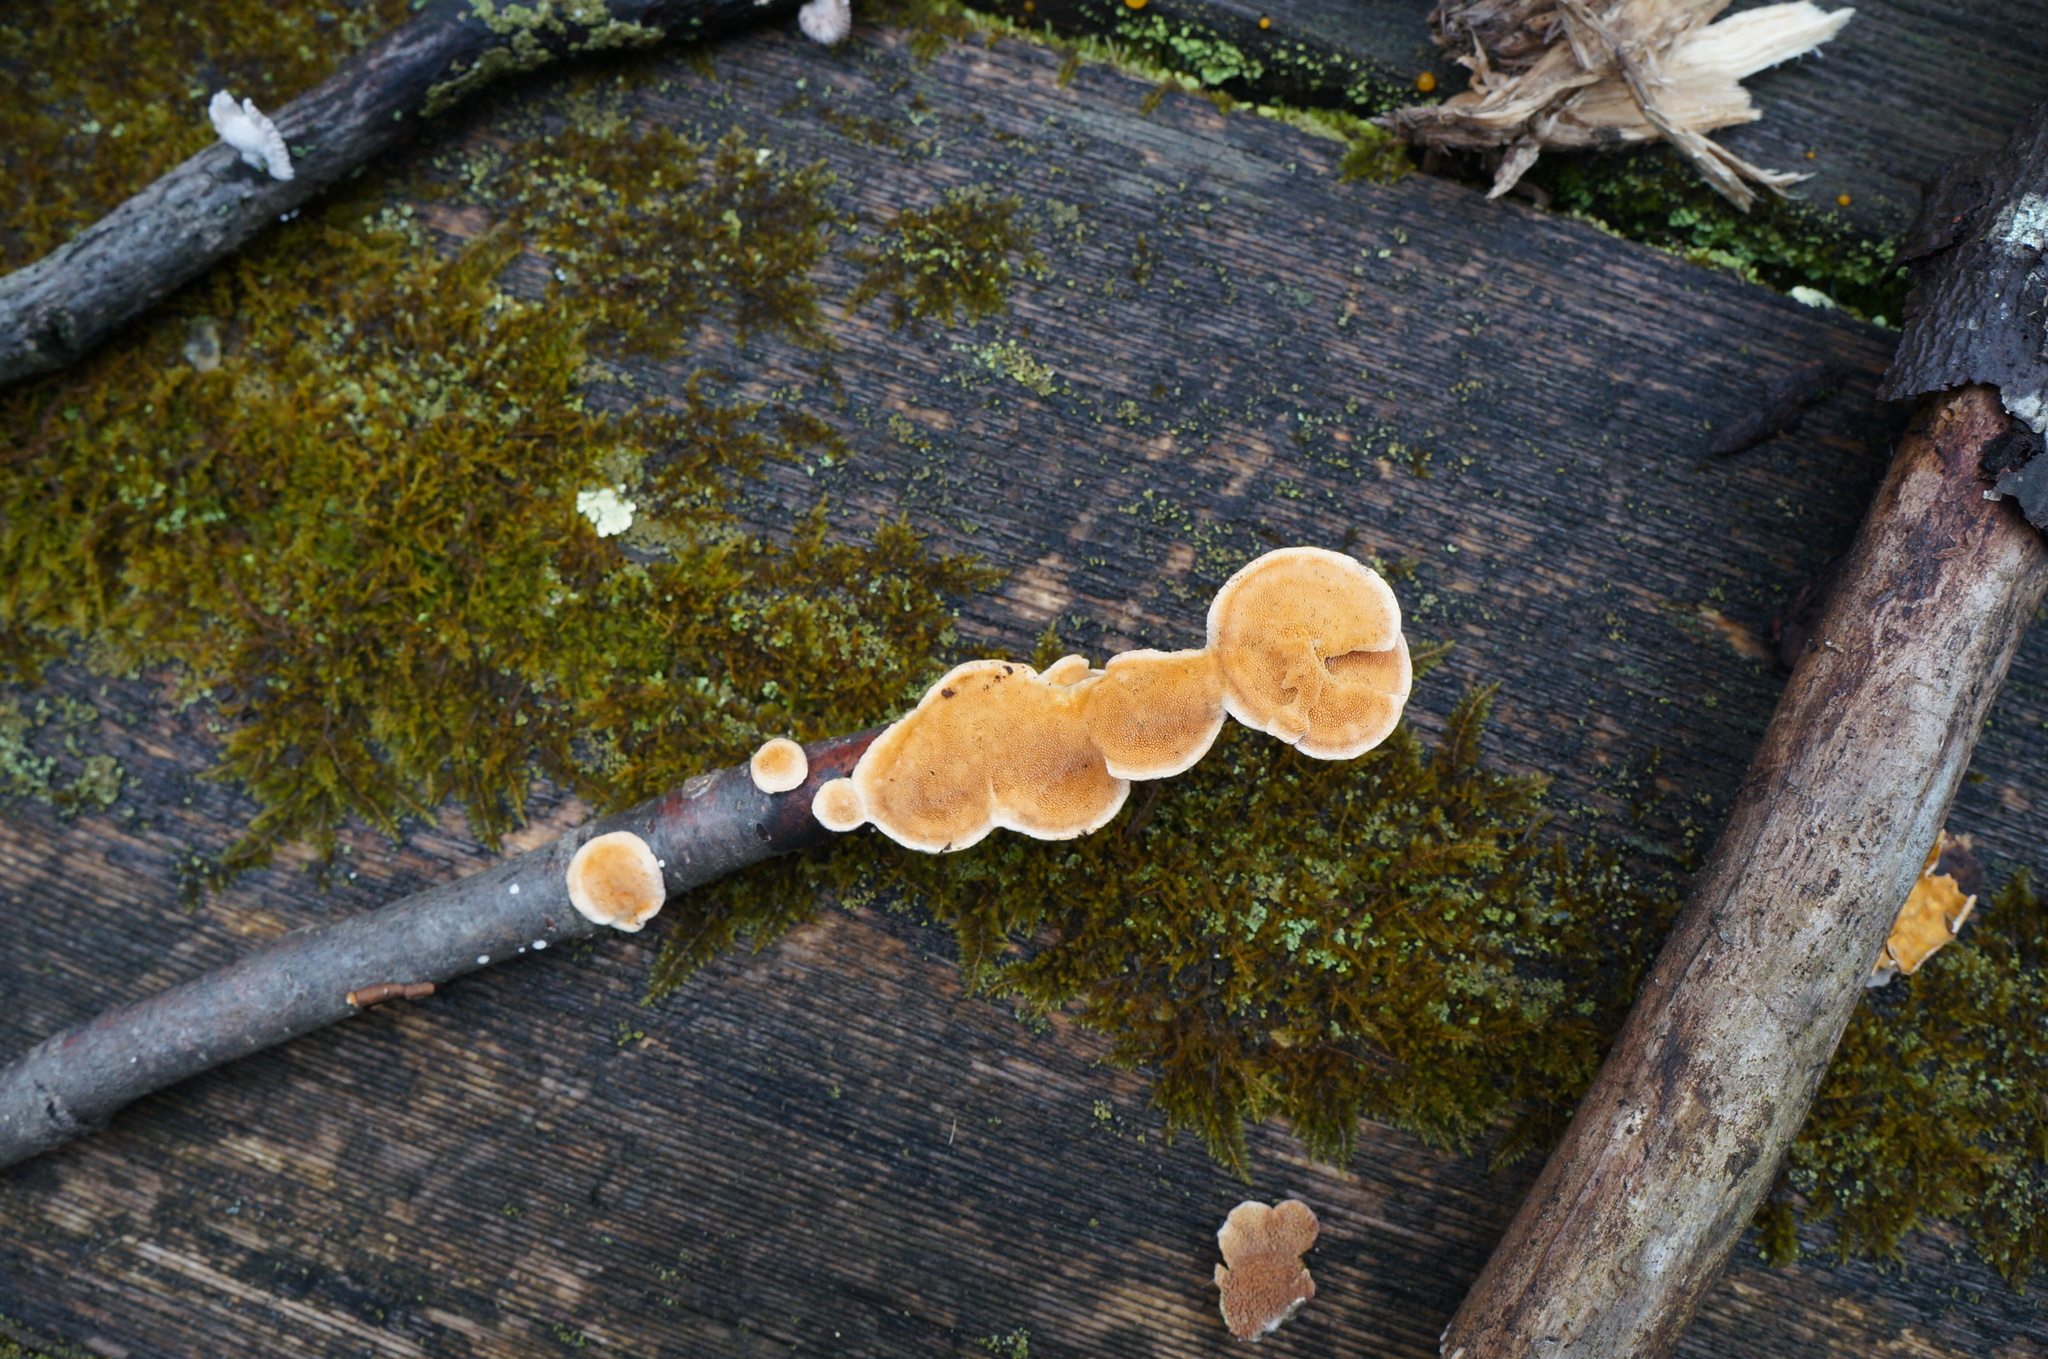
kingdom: Fungi
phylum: Basidiomycota
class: Agaricomycetes
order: Polyporales
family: Steccherinaceae
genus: Steccherinum
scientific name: Steccherinum ochraceum
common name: Ochre spreading tooth
